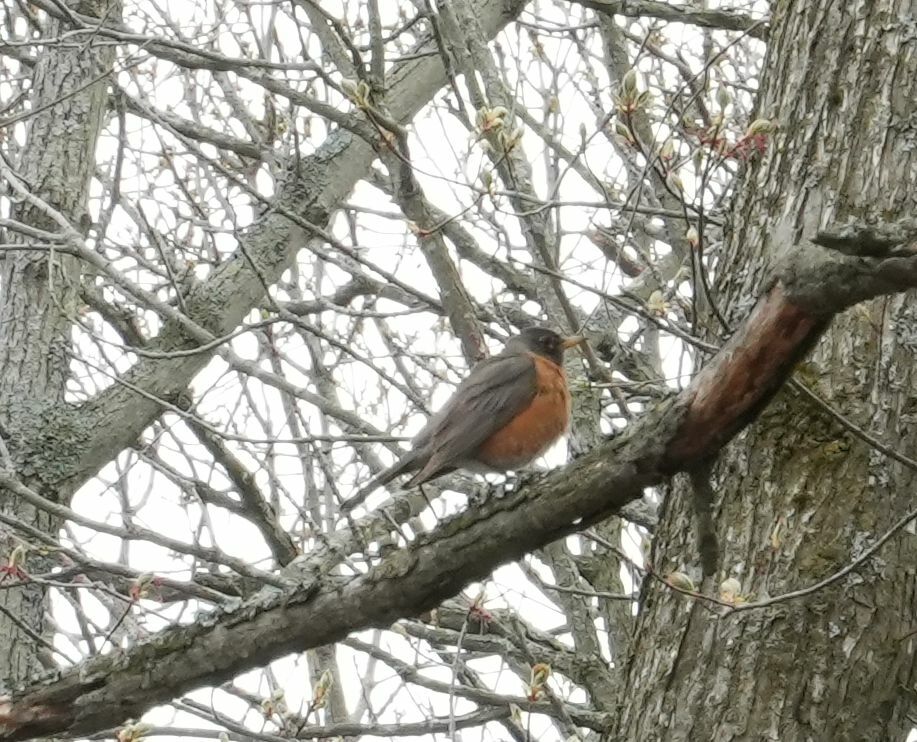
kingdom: Animalia
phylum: Chordata
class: Aves
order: Passeriformes
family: Turdidae
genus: Turdus
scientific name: Turdus migratorius
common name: American robin
